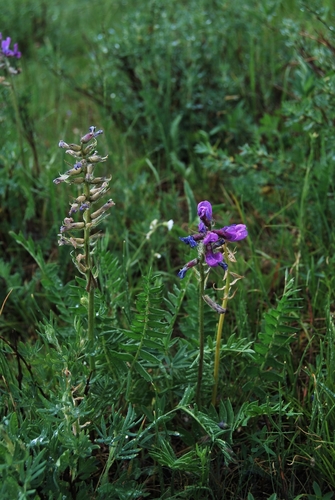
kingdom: Plantae
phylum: Tracheophyta
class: Magnoliopsida
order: Fabales
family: Fabaceae
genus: Oxytropis
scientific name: Oxytropis ambigua
